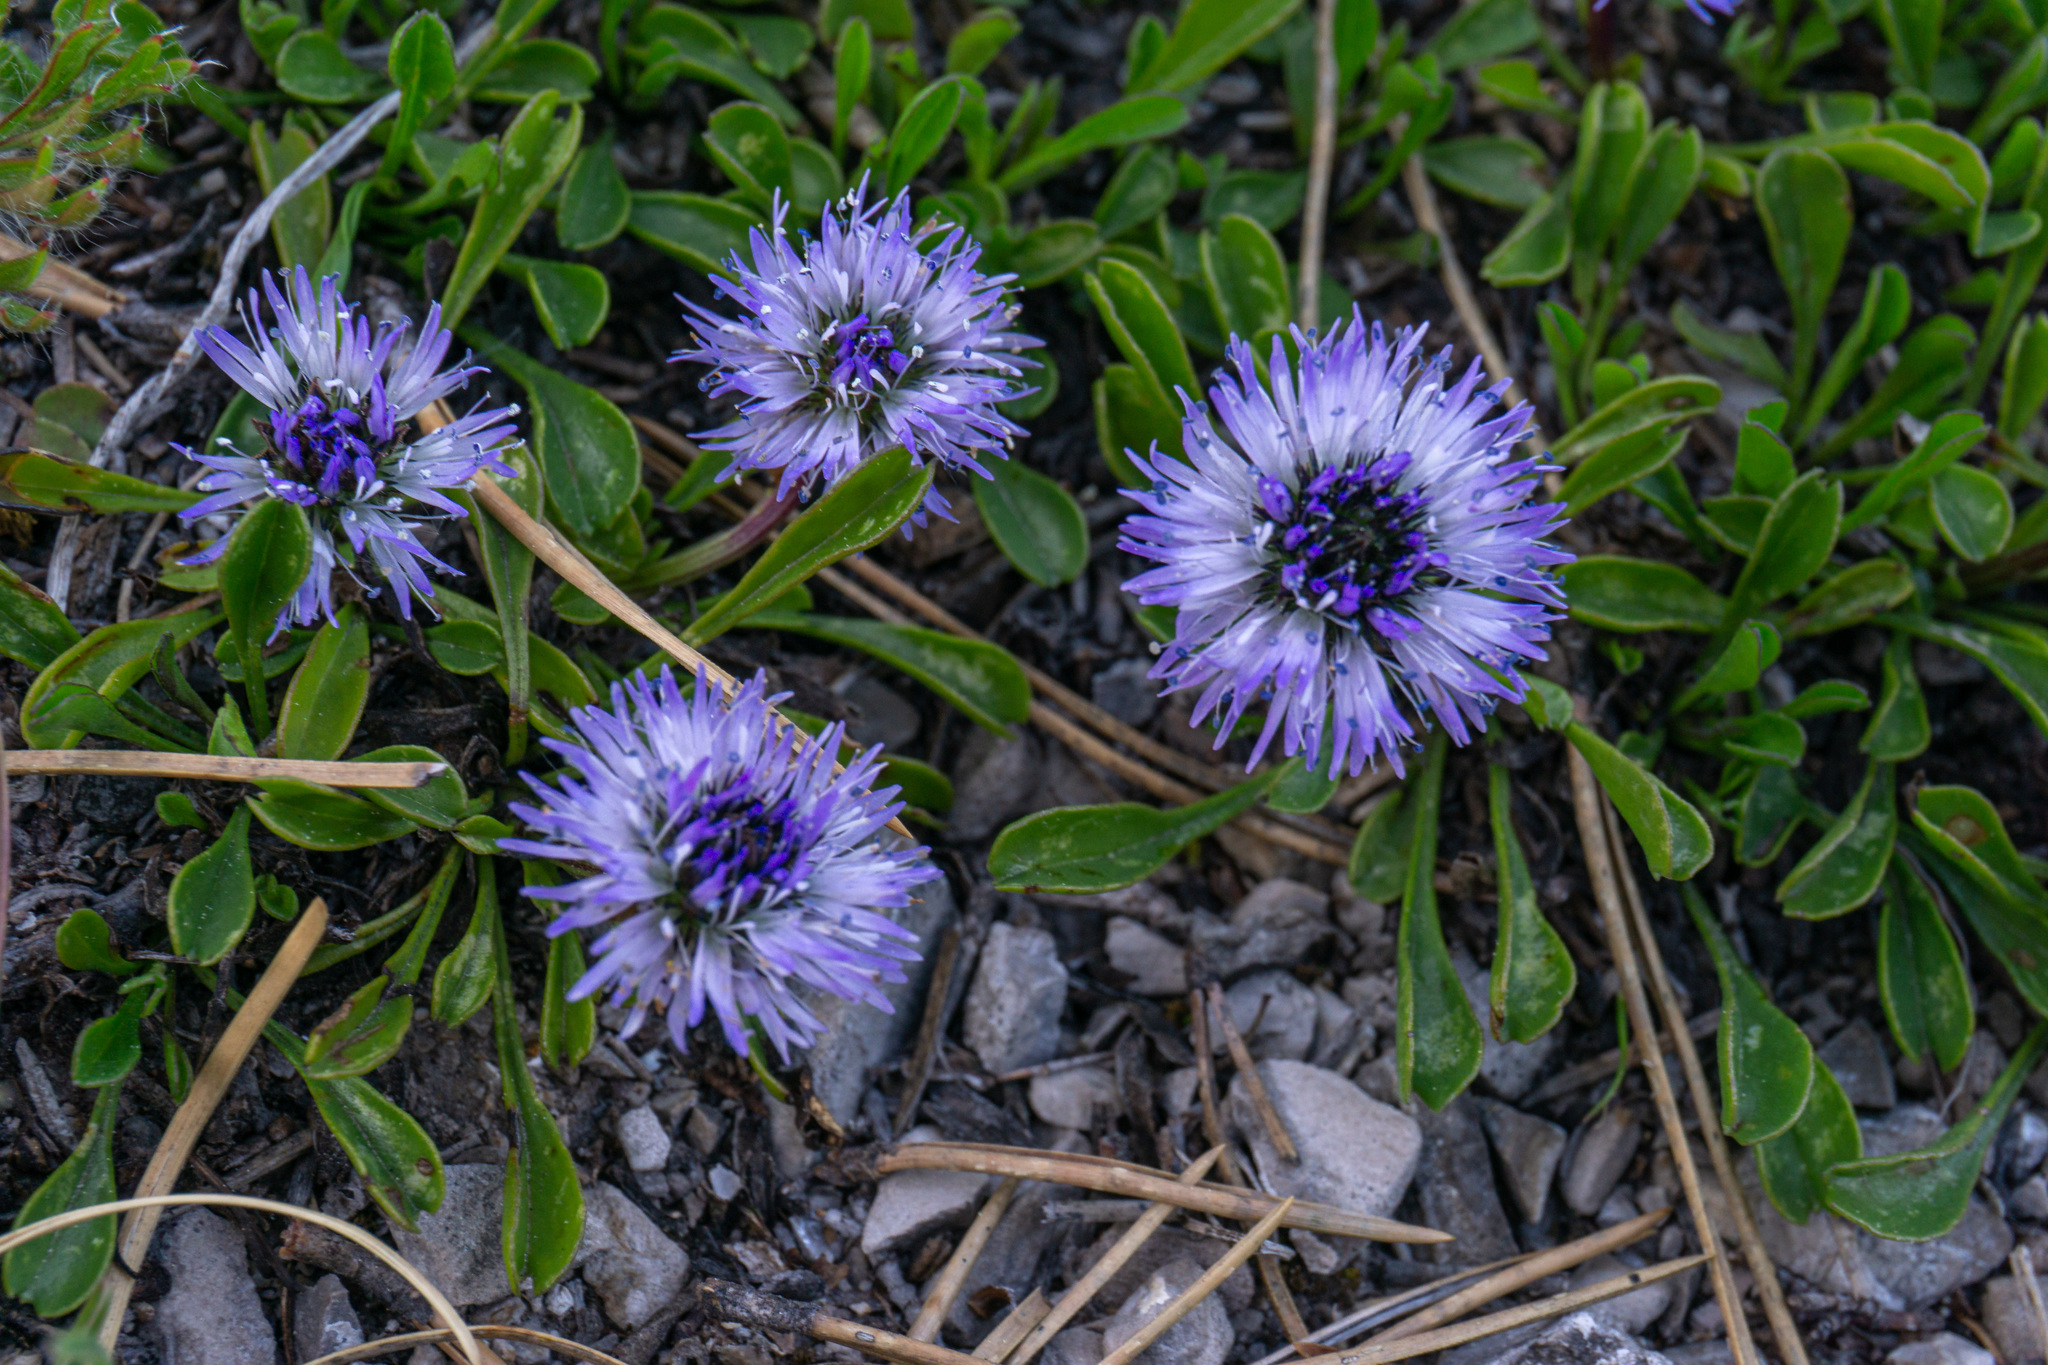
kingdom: Plantae
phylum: Tracheophyta
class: Magnoliopsida
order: Lamiales
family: Plantaginaceae
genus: Globularia
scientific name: Globularia cordifolia
